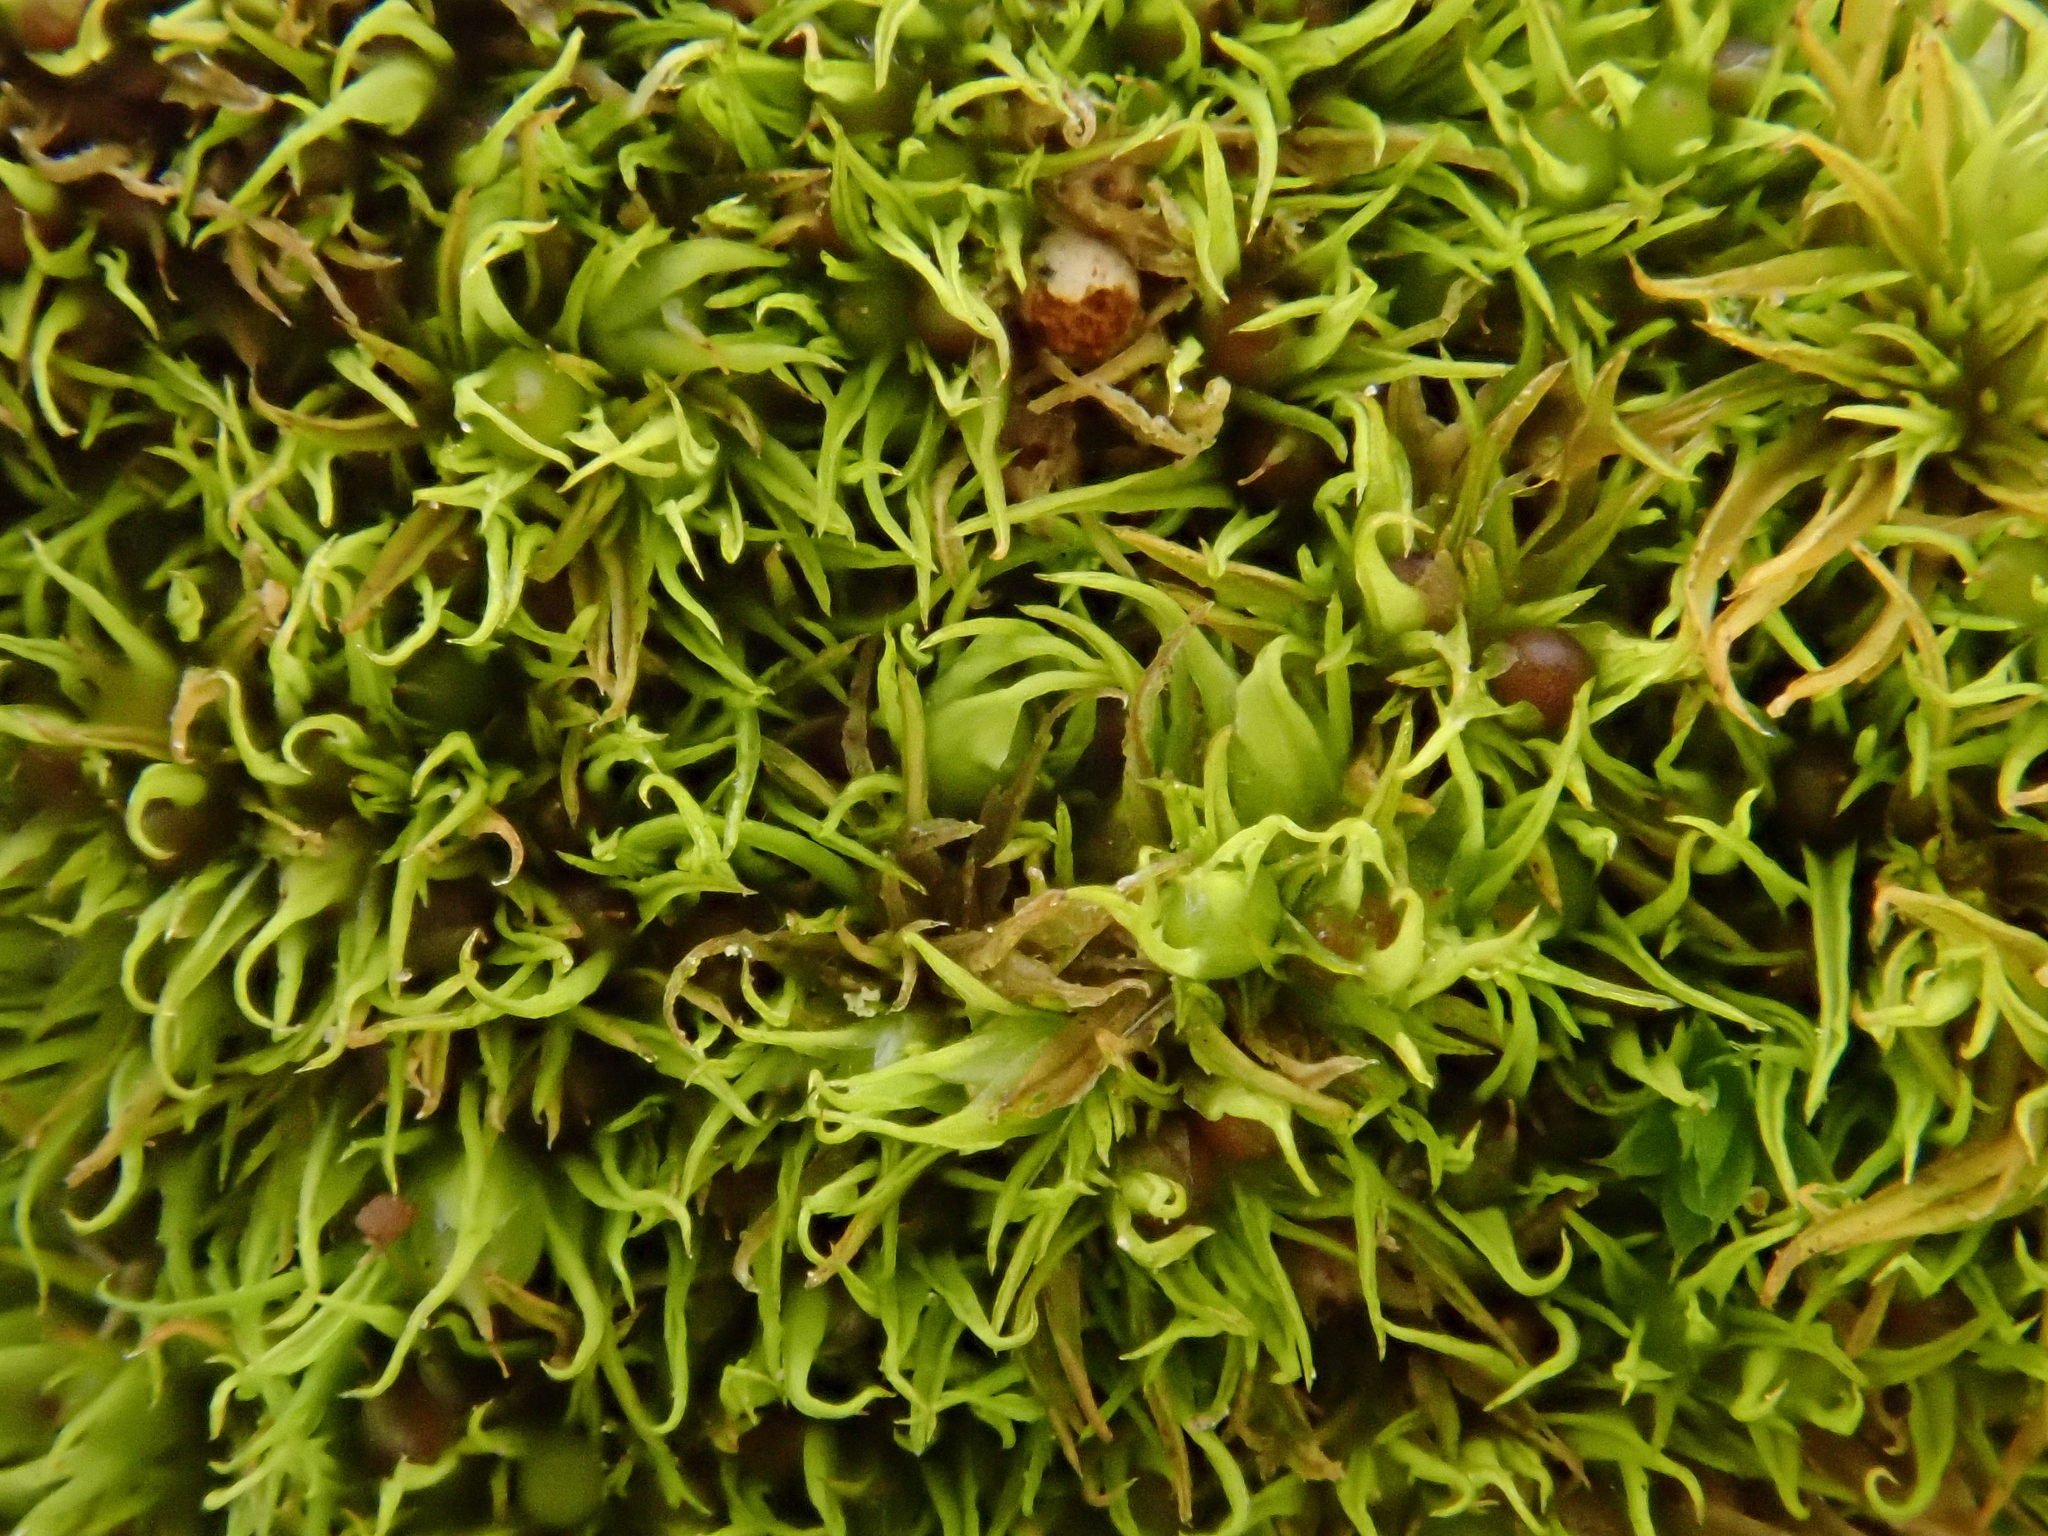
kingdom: Plantae
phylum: Bryophyta
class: Bryopsida
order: Pottiales
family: Pottiaceae
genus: Weissia
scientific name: Weissia longifolia
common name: Crisp beardless-moss
